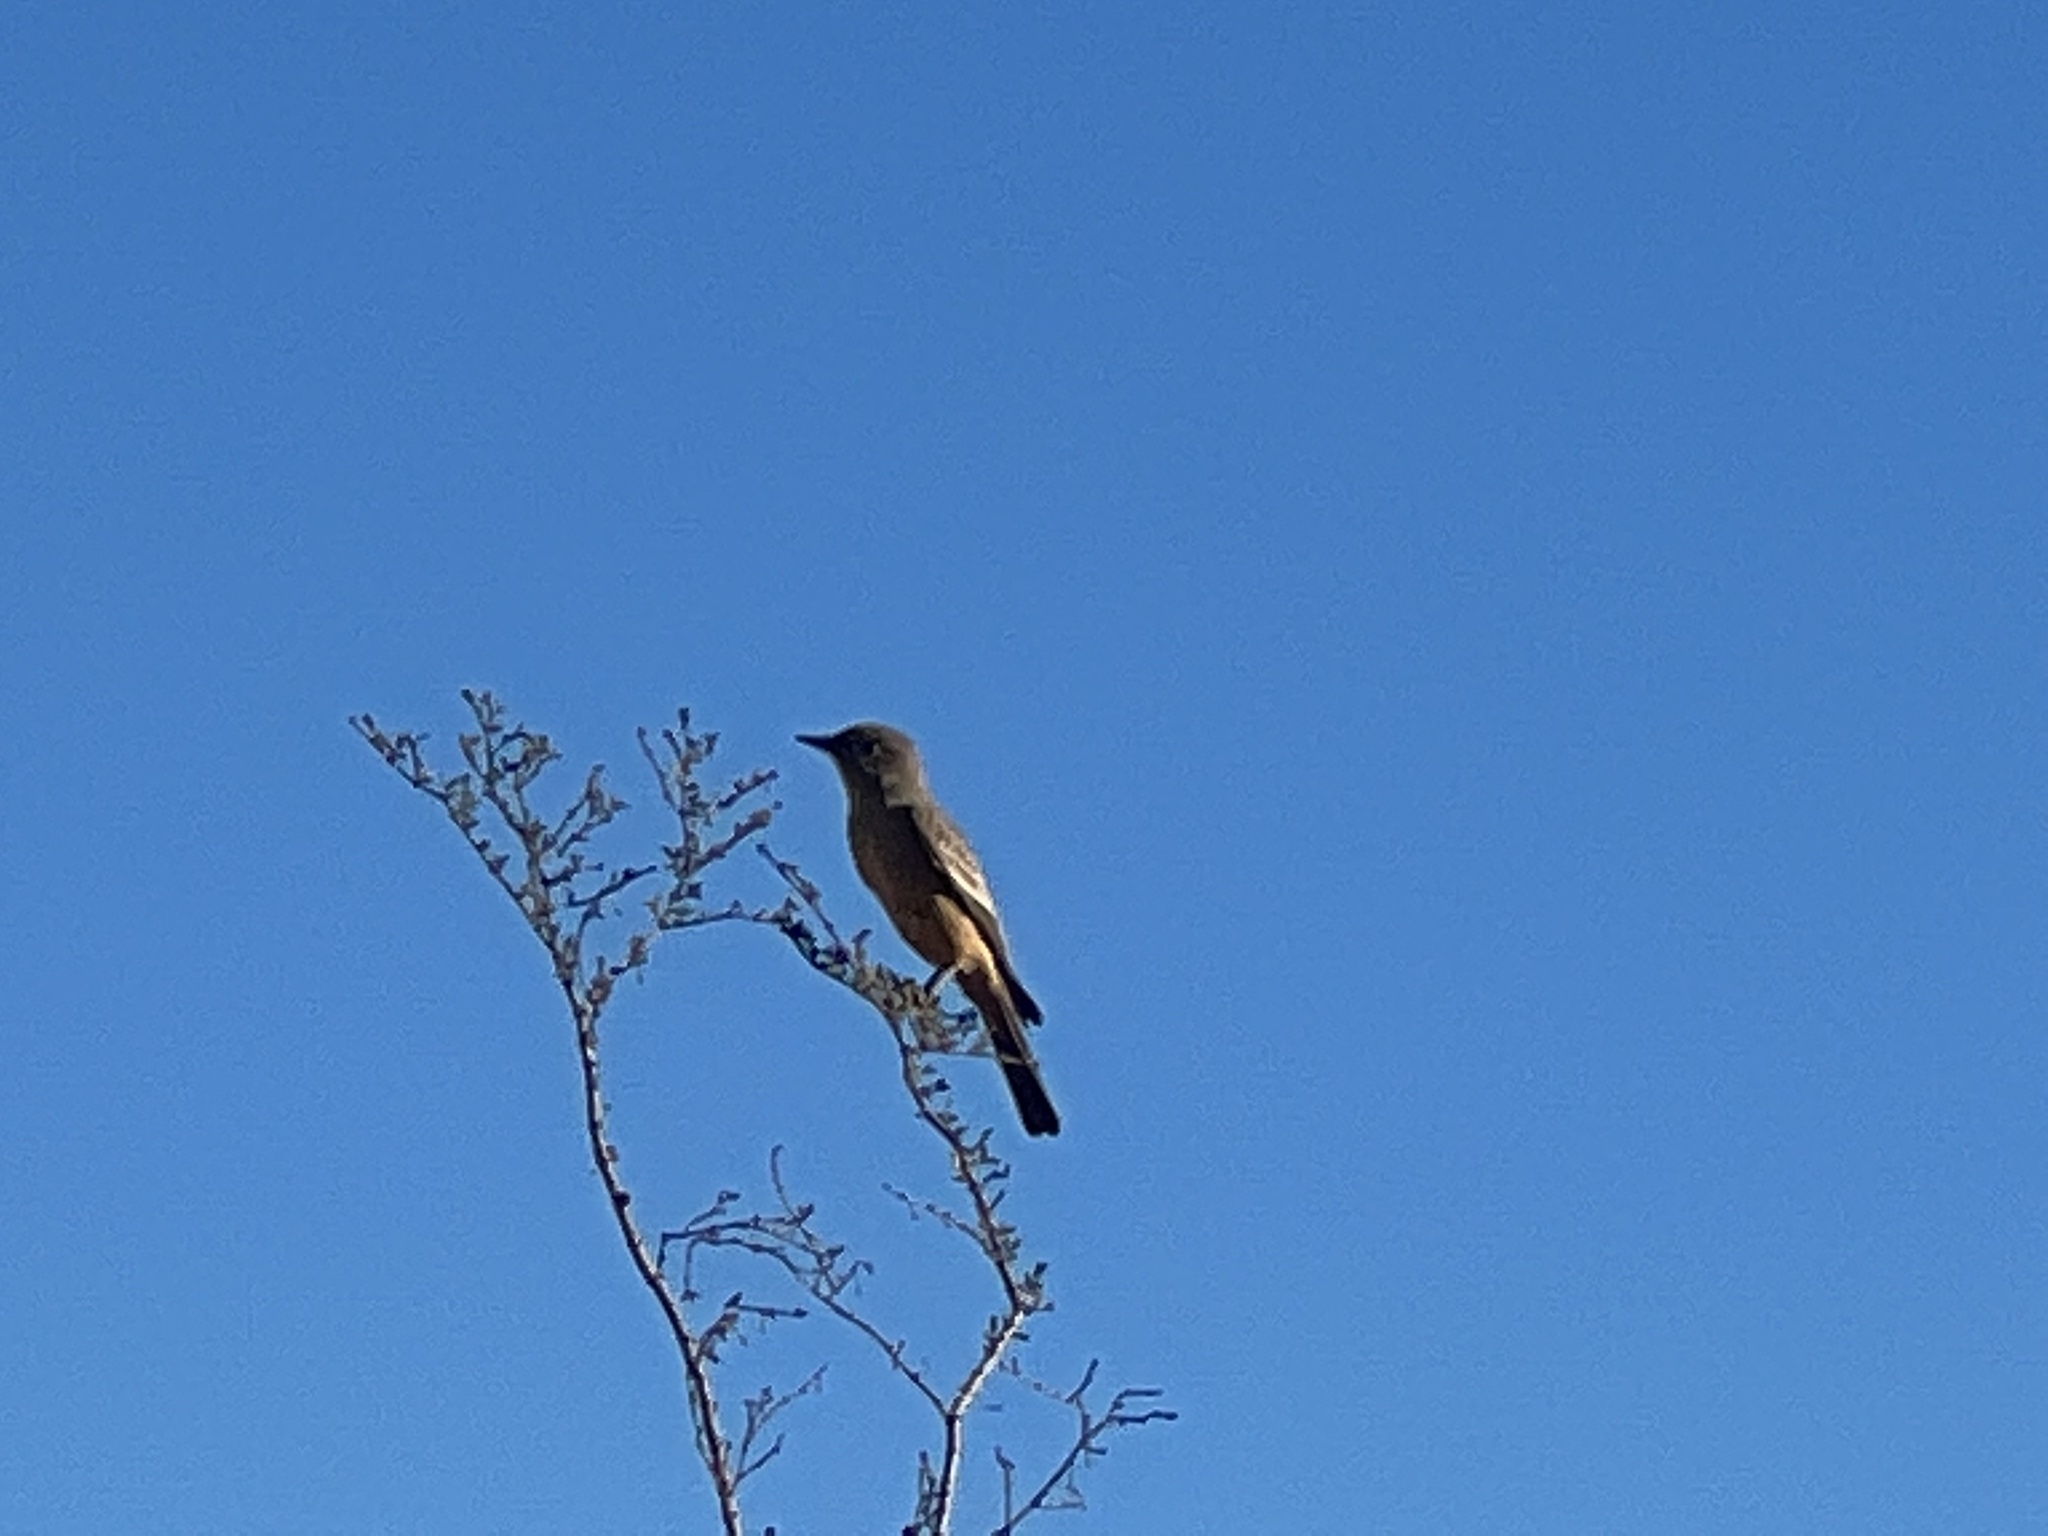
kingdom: Animalia
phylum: Chordata
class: Aves
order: Passeriformes
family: Tyrannidae
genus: Sayornis
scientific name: Sayornis saya
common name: Say's phoebe
